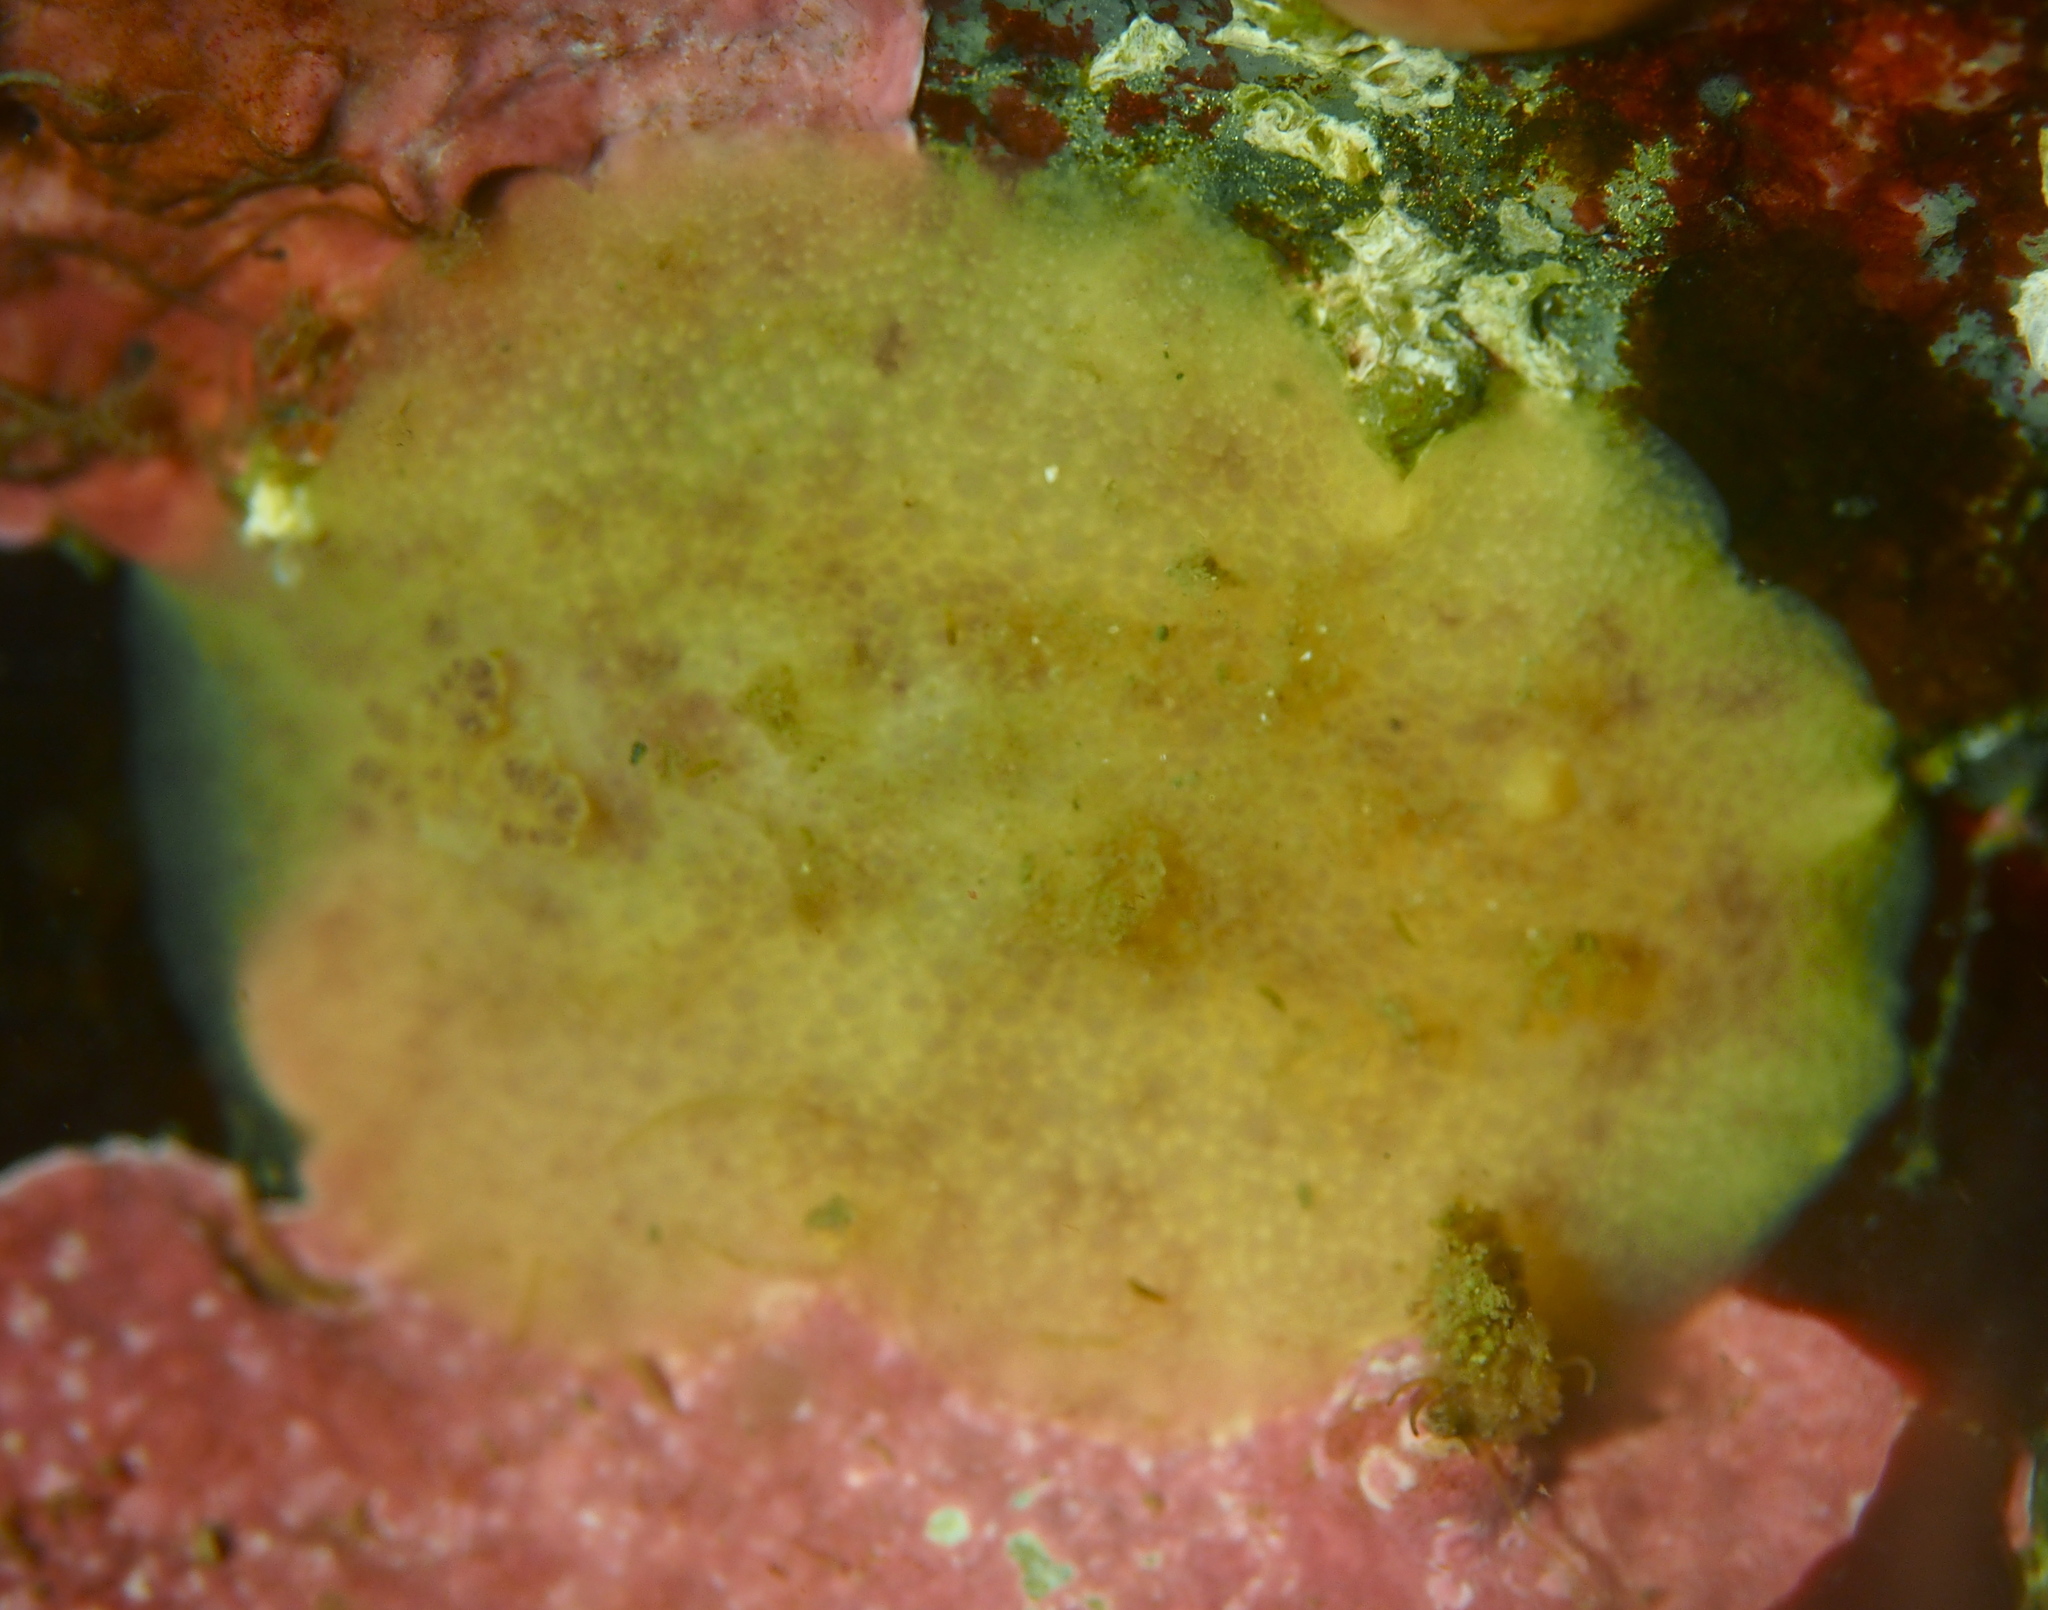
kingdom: Animalia
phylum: Mollusca
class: Gastropoda
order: Nudibranchia
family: Dorididae
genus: Doris
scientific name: Doris pseudoargus
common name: Sea lemon
